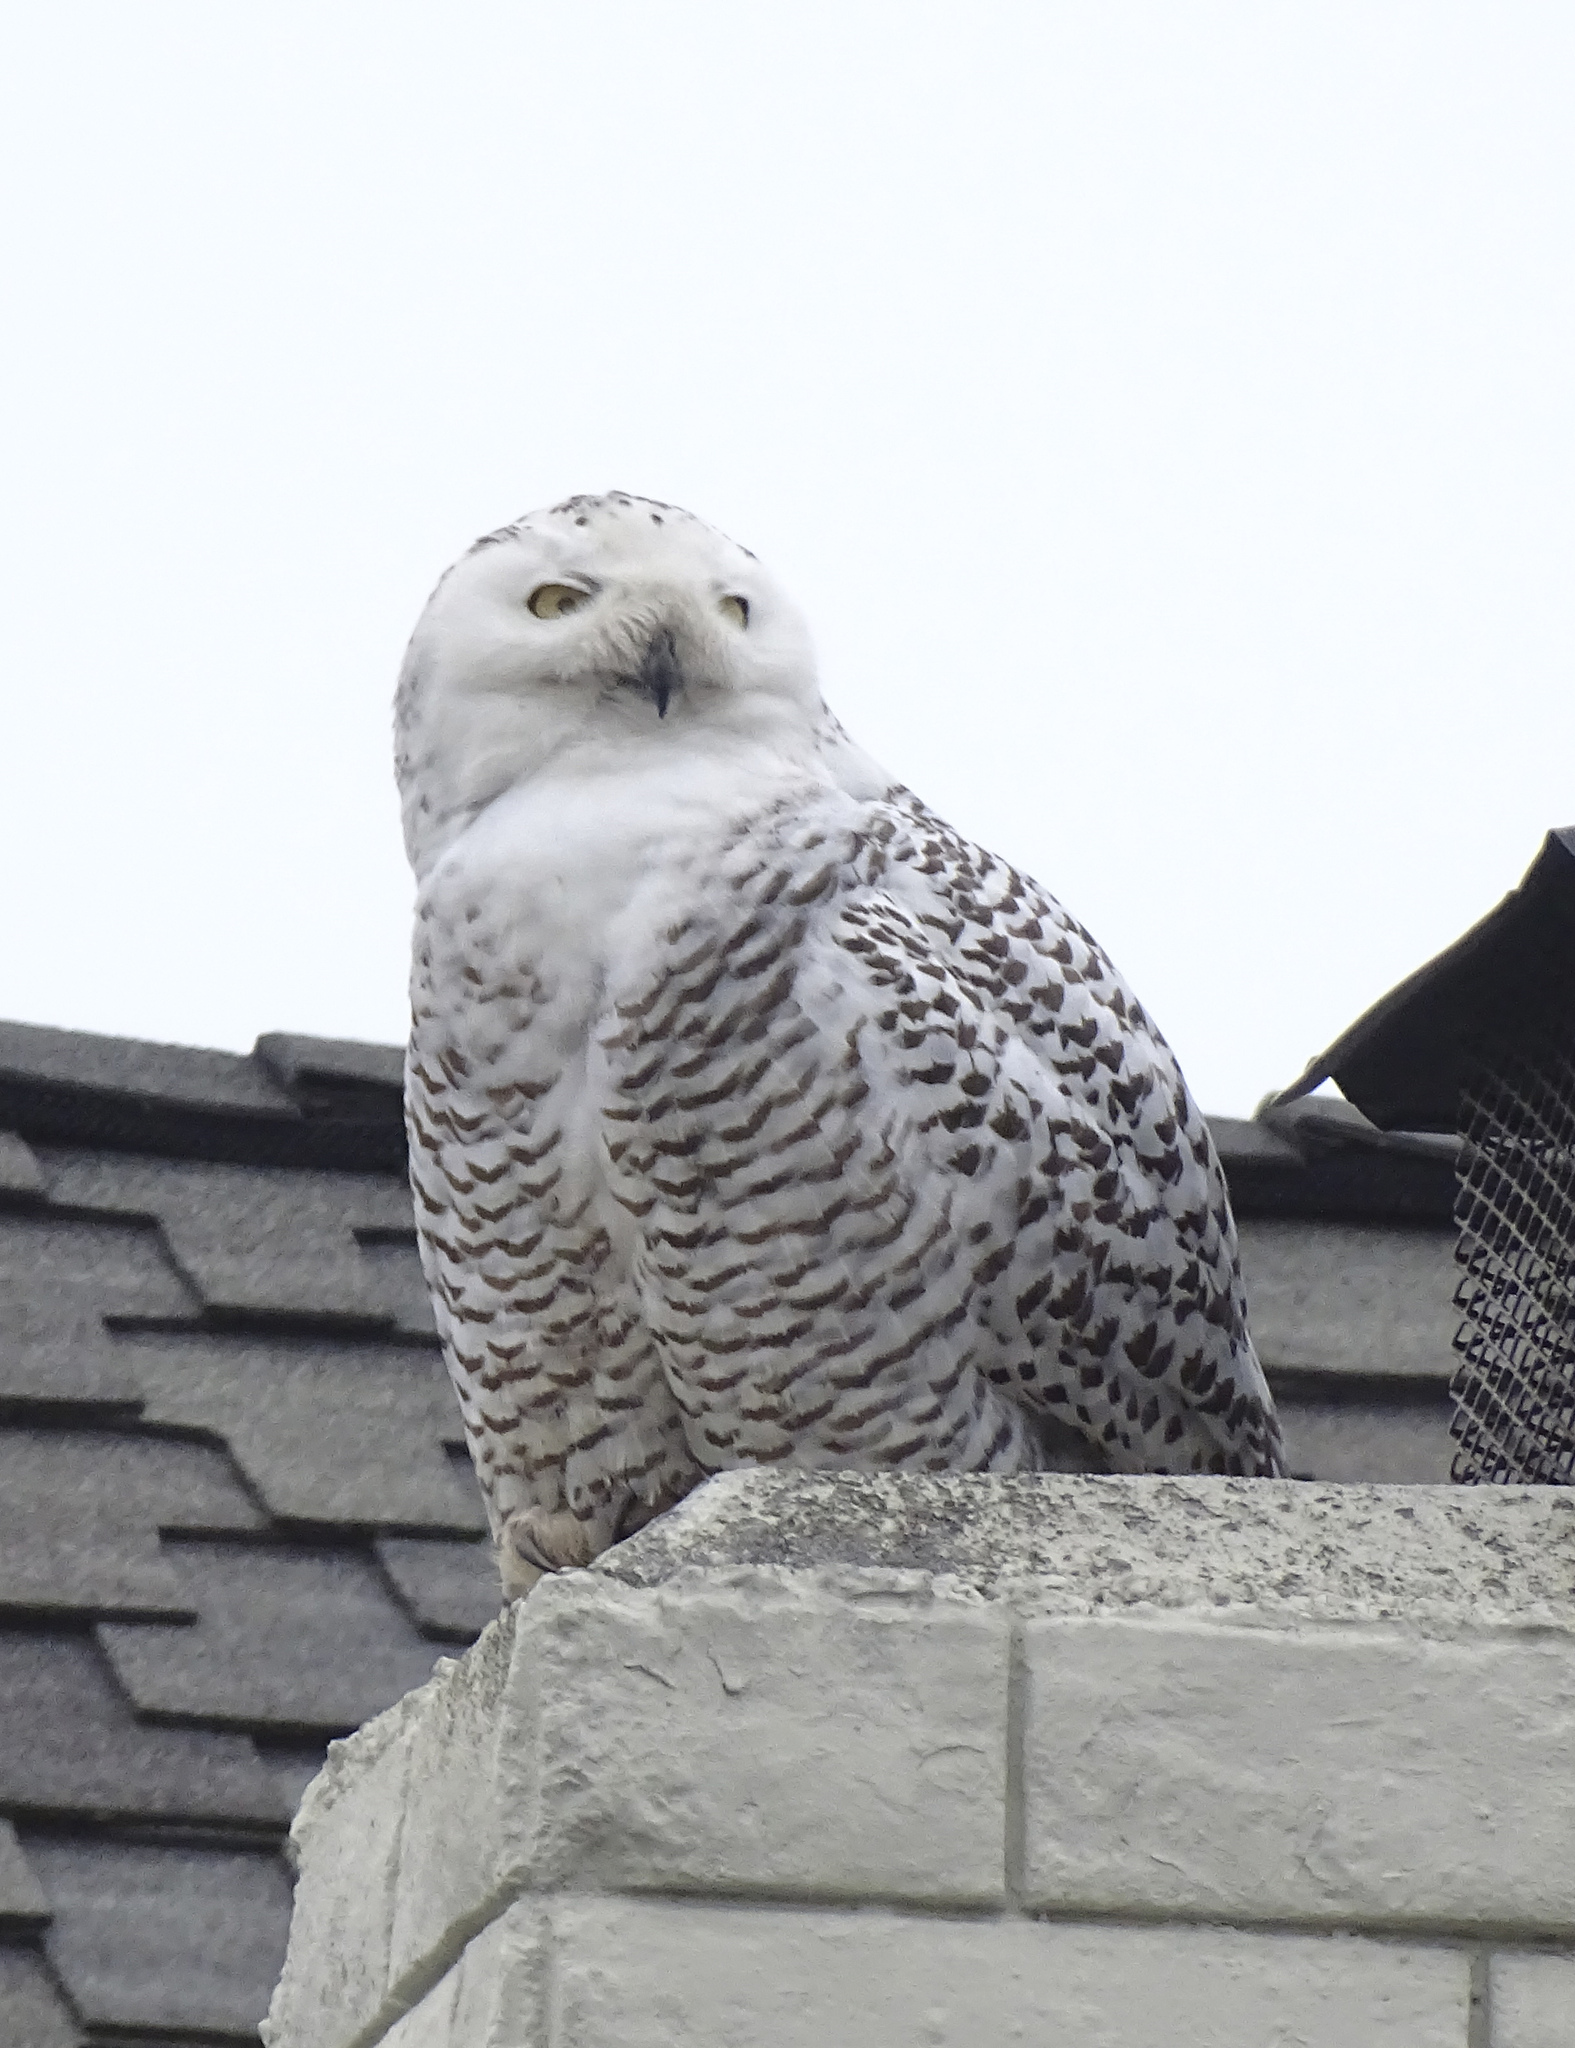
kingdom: Animalia
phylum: Chordata
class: Aves
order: Strigiformes
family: Strigidae
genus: Bubo
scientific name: Bubo scandiacus
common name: Snowy owl
